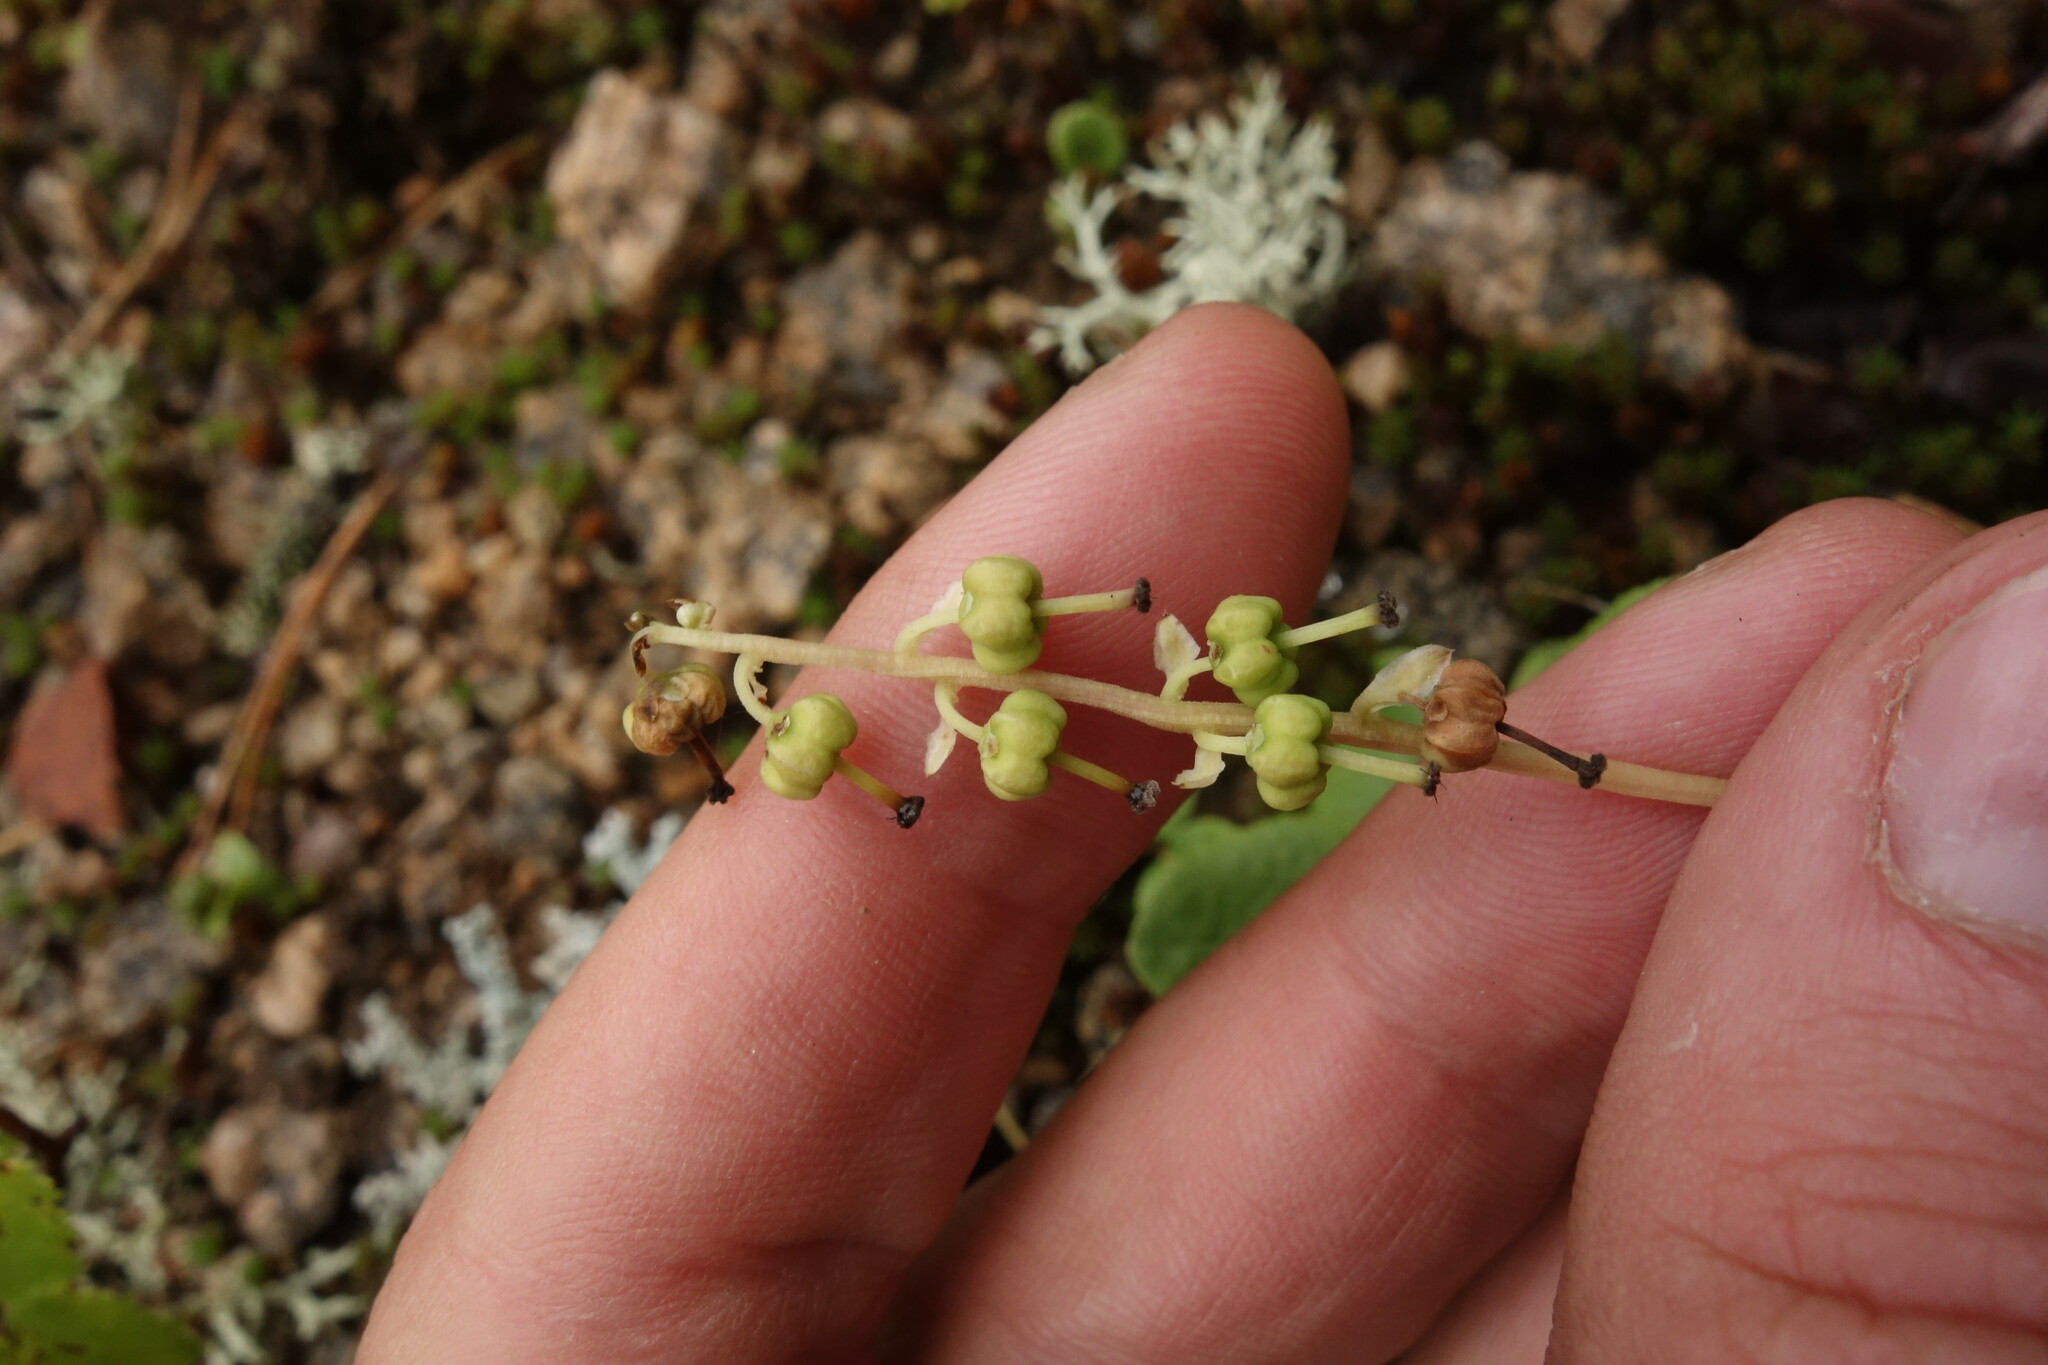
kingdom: Plantae
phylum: Tracheophyta
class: Magnoliopsida
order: Ericales
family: Ericaceae
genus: Orthilia
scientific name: Orthilia secunda
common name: One-sided orthilia
